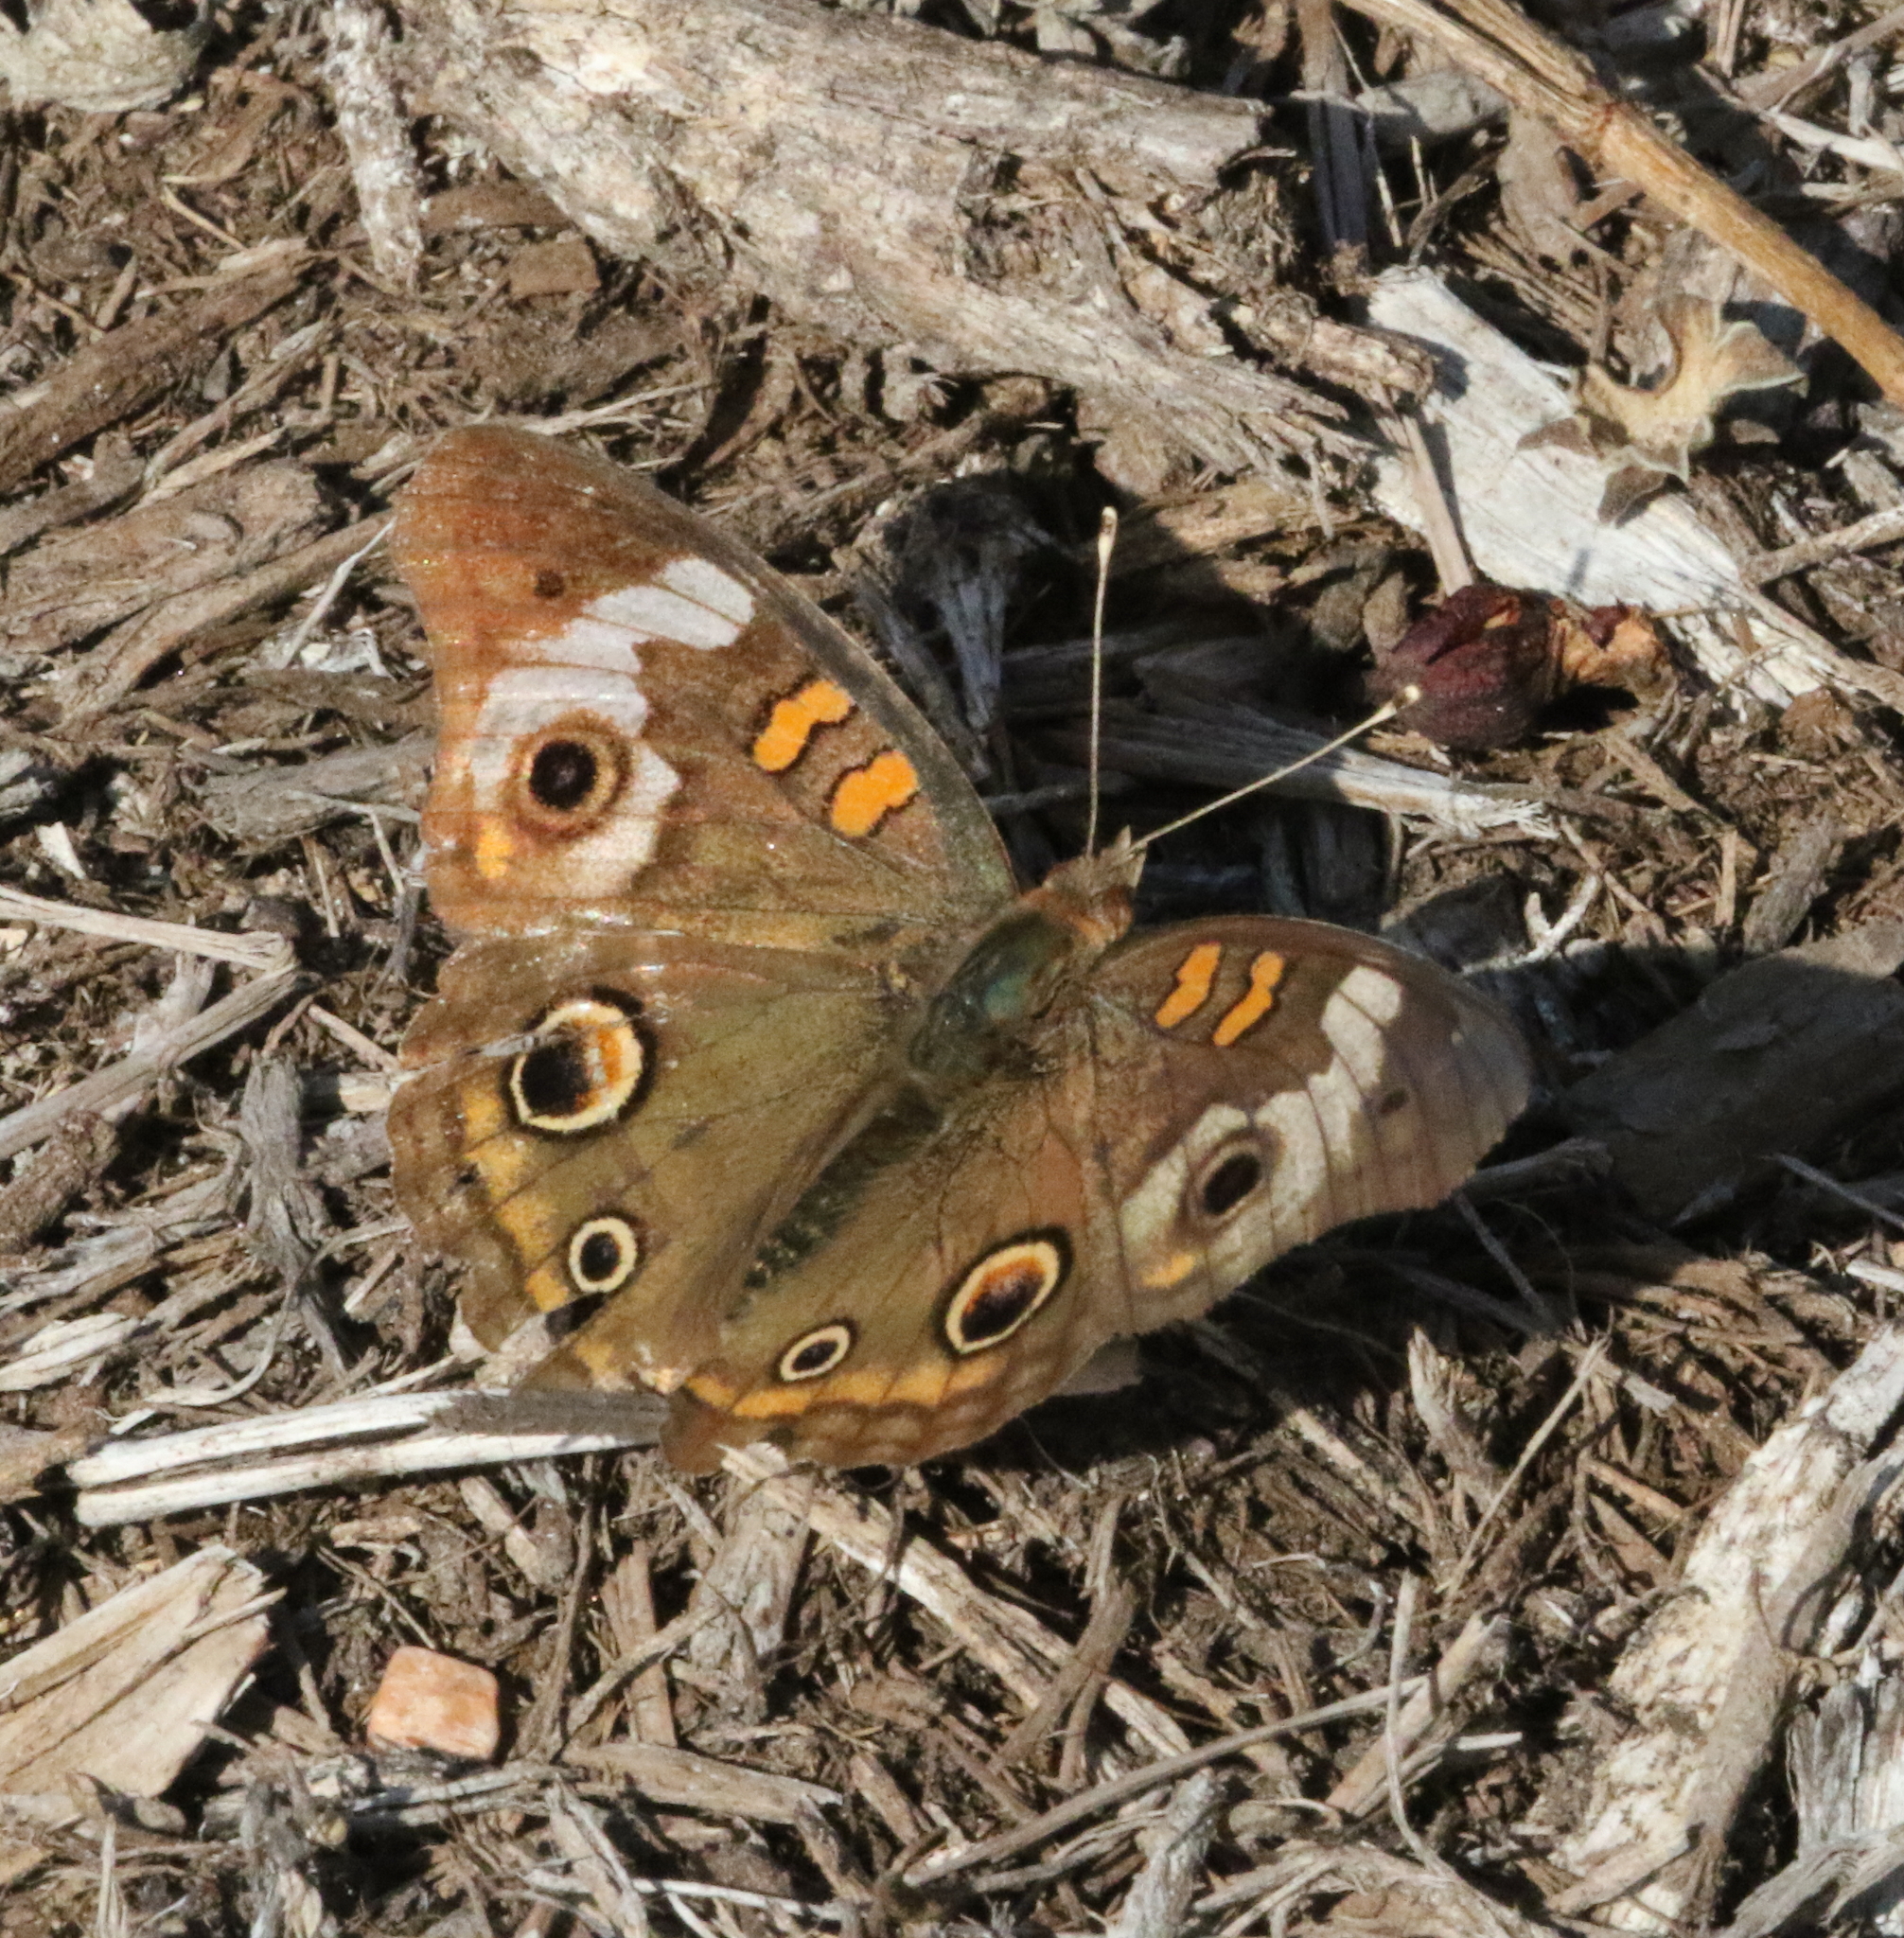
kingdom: Animalia
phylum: Arthropoda
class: Insecta
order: Lepidoptera
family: Nymphalidae
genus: Junonia
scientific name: Junonia coenia
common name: Common buckeye
